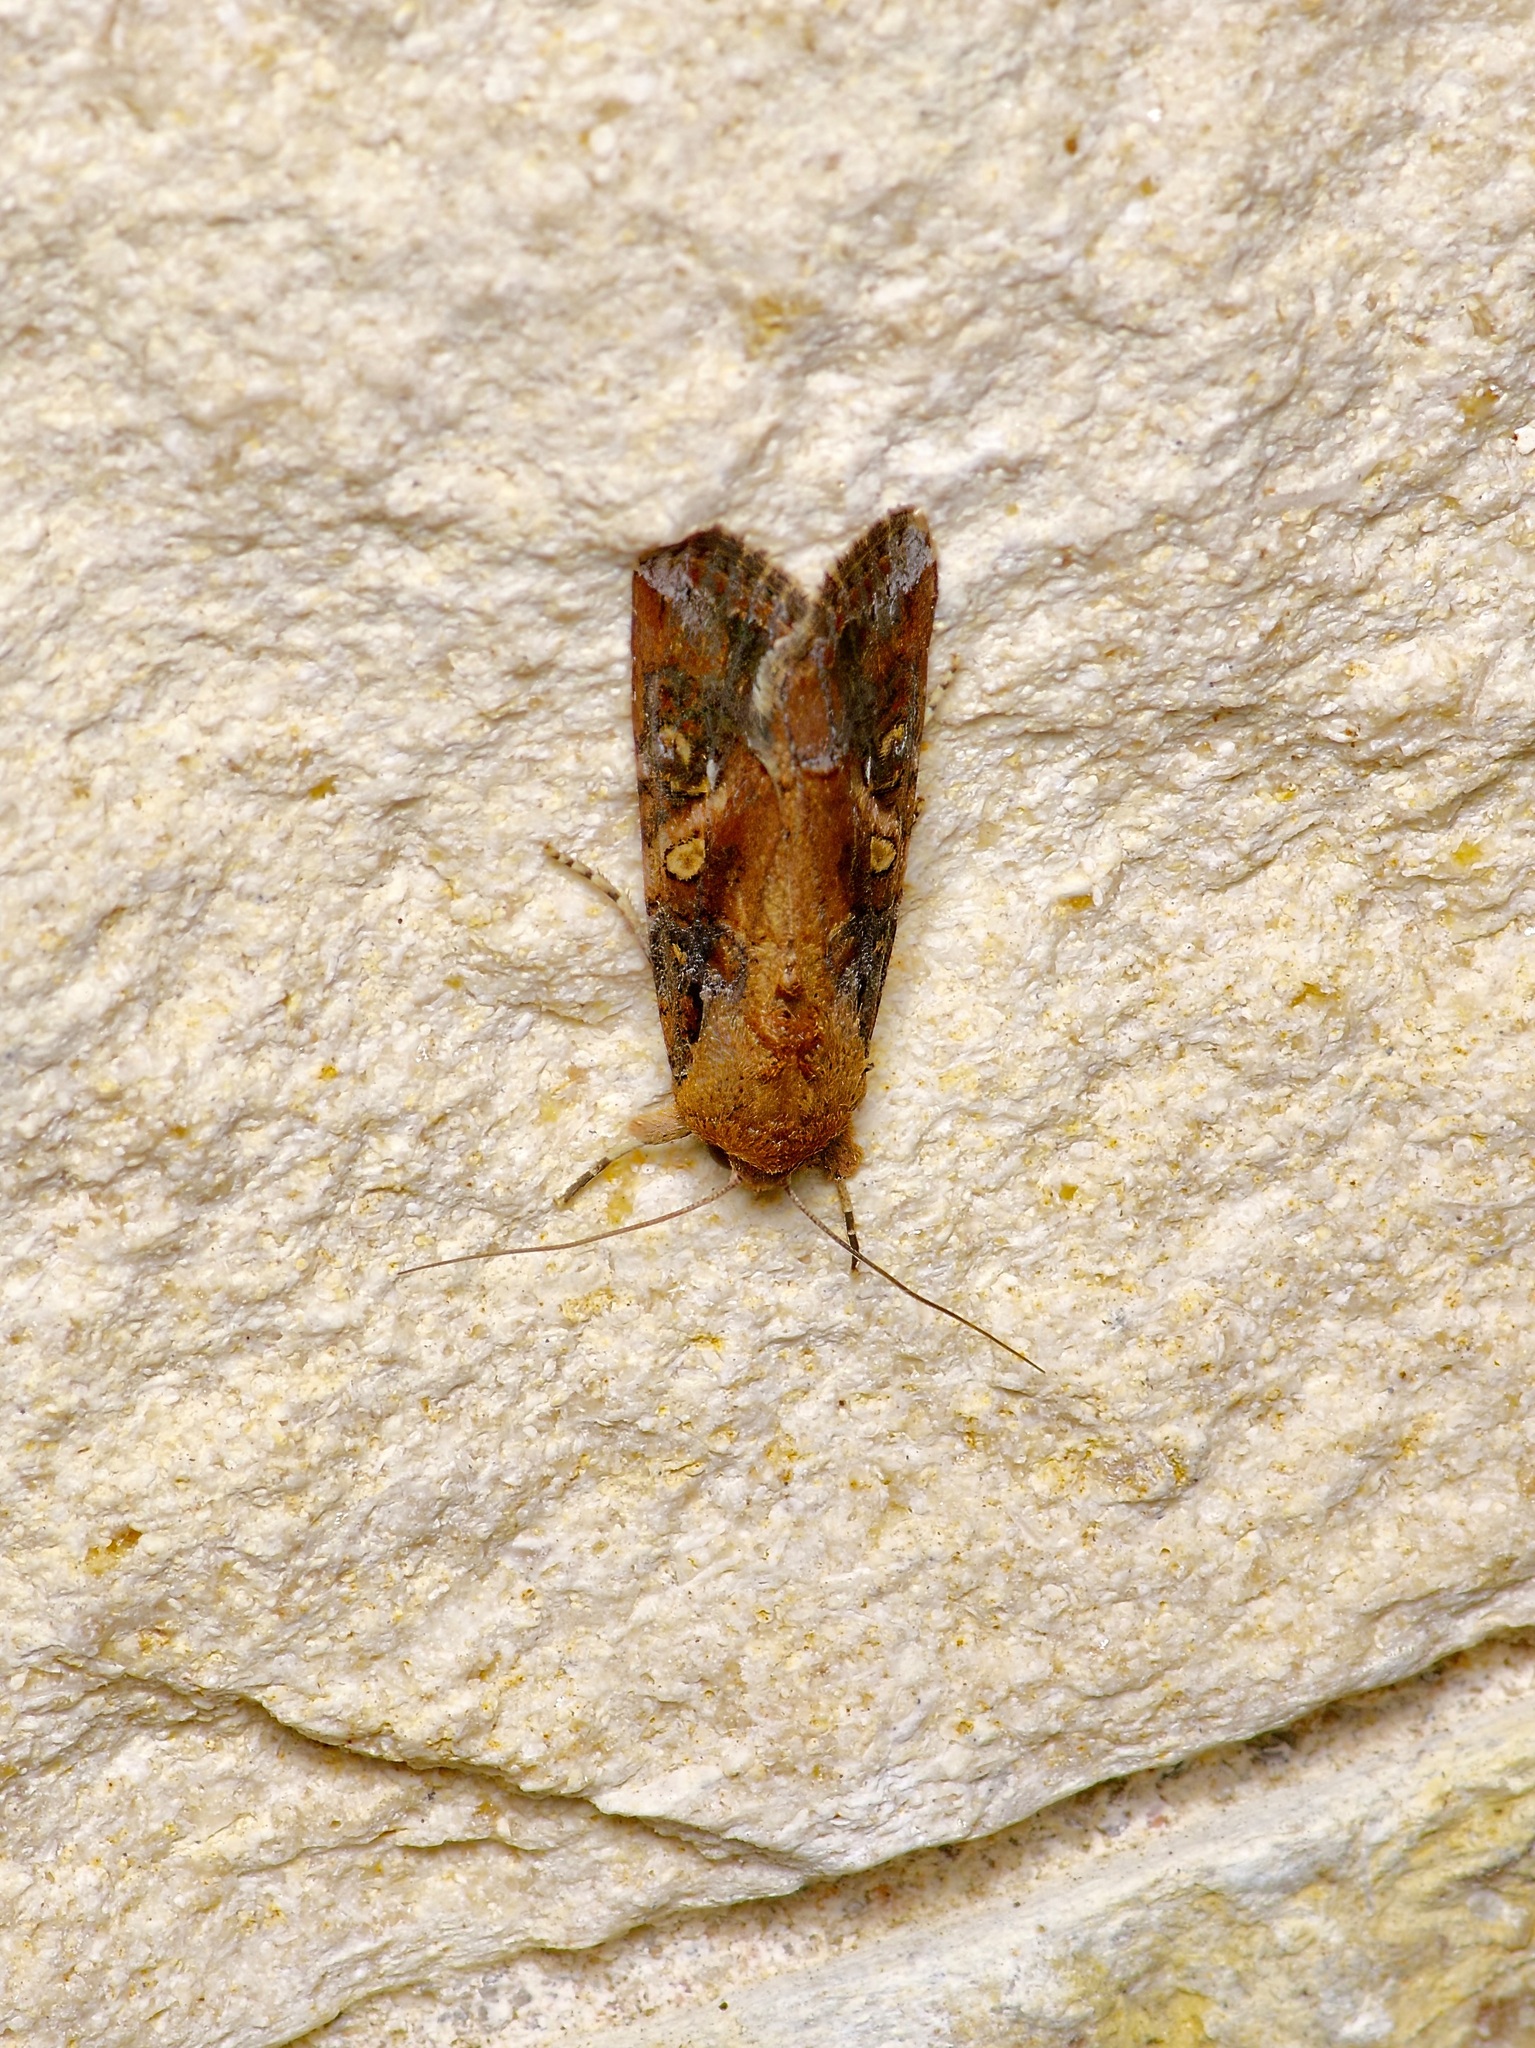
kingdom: Animalia
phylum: Arthropoda
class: Insecta
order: Lepidoptera
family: Noctuidae
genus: Spodoptera
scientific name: Spodoptera frugiperda
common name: Fall armyworm
